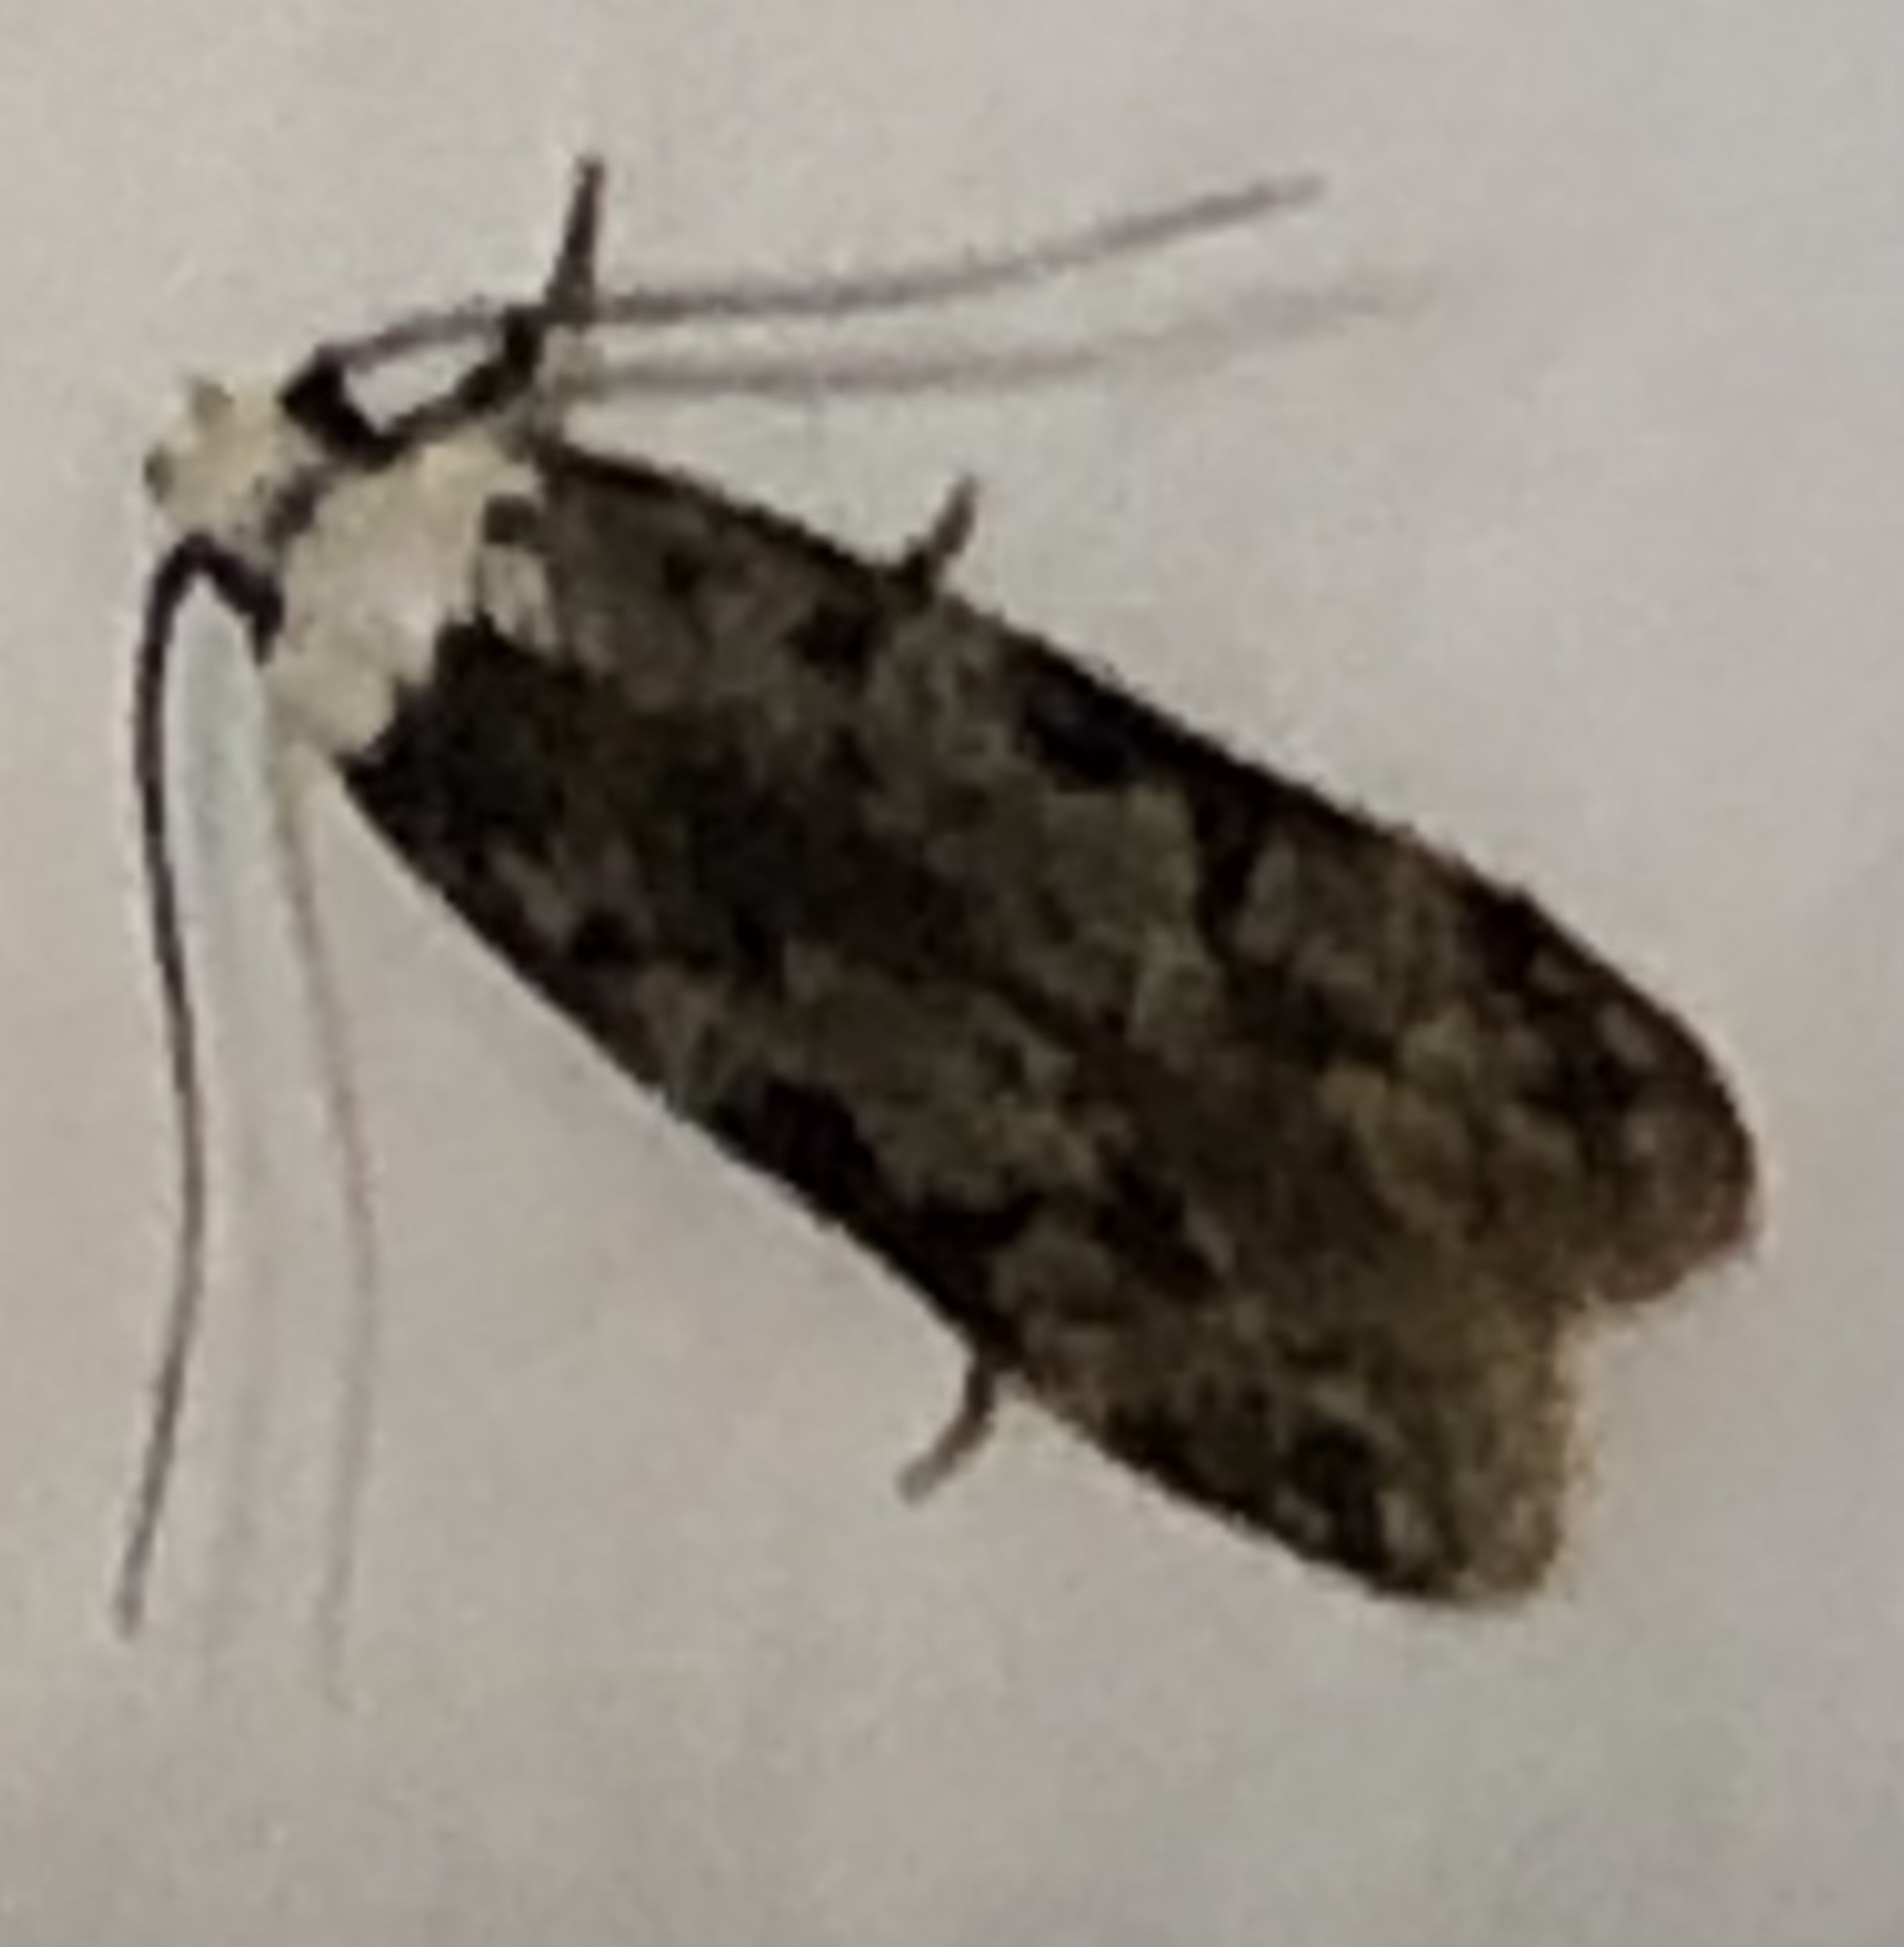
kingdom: Animalia
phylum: Arthropoda
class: Insecta
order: Lepidoptera
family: Oecophoridae
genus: Endrosis
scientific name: Endrosis sarcitrella
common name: White-shouldered house moth
